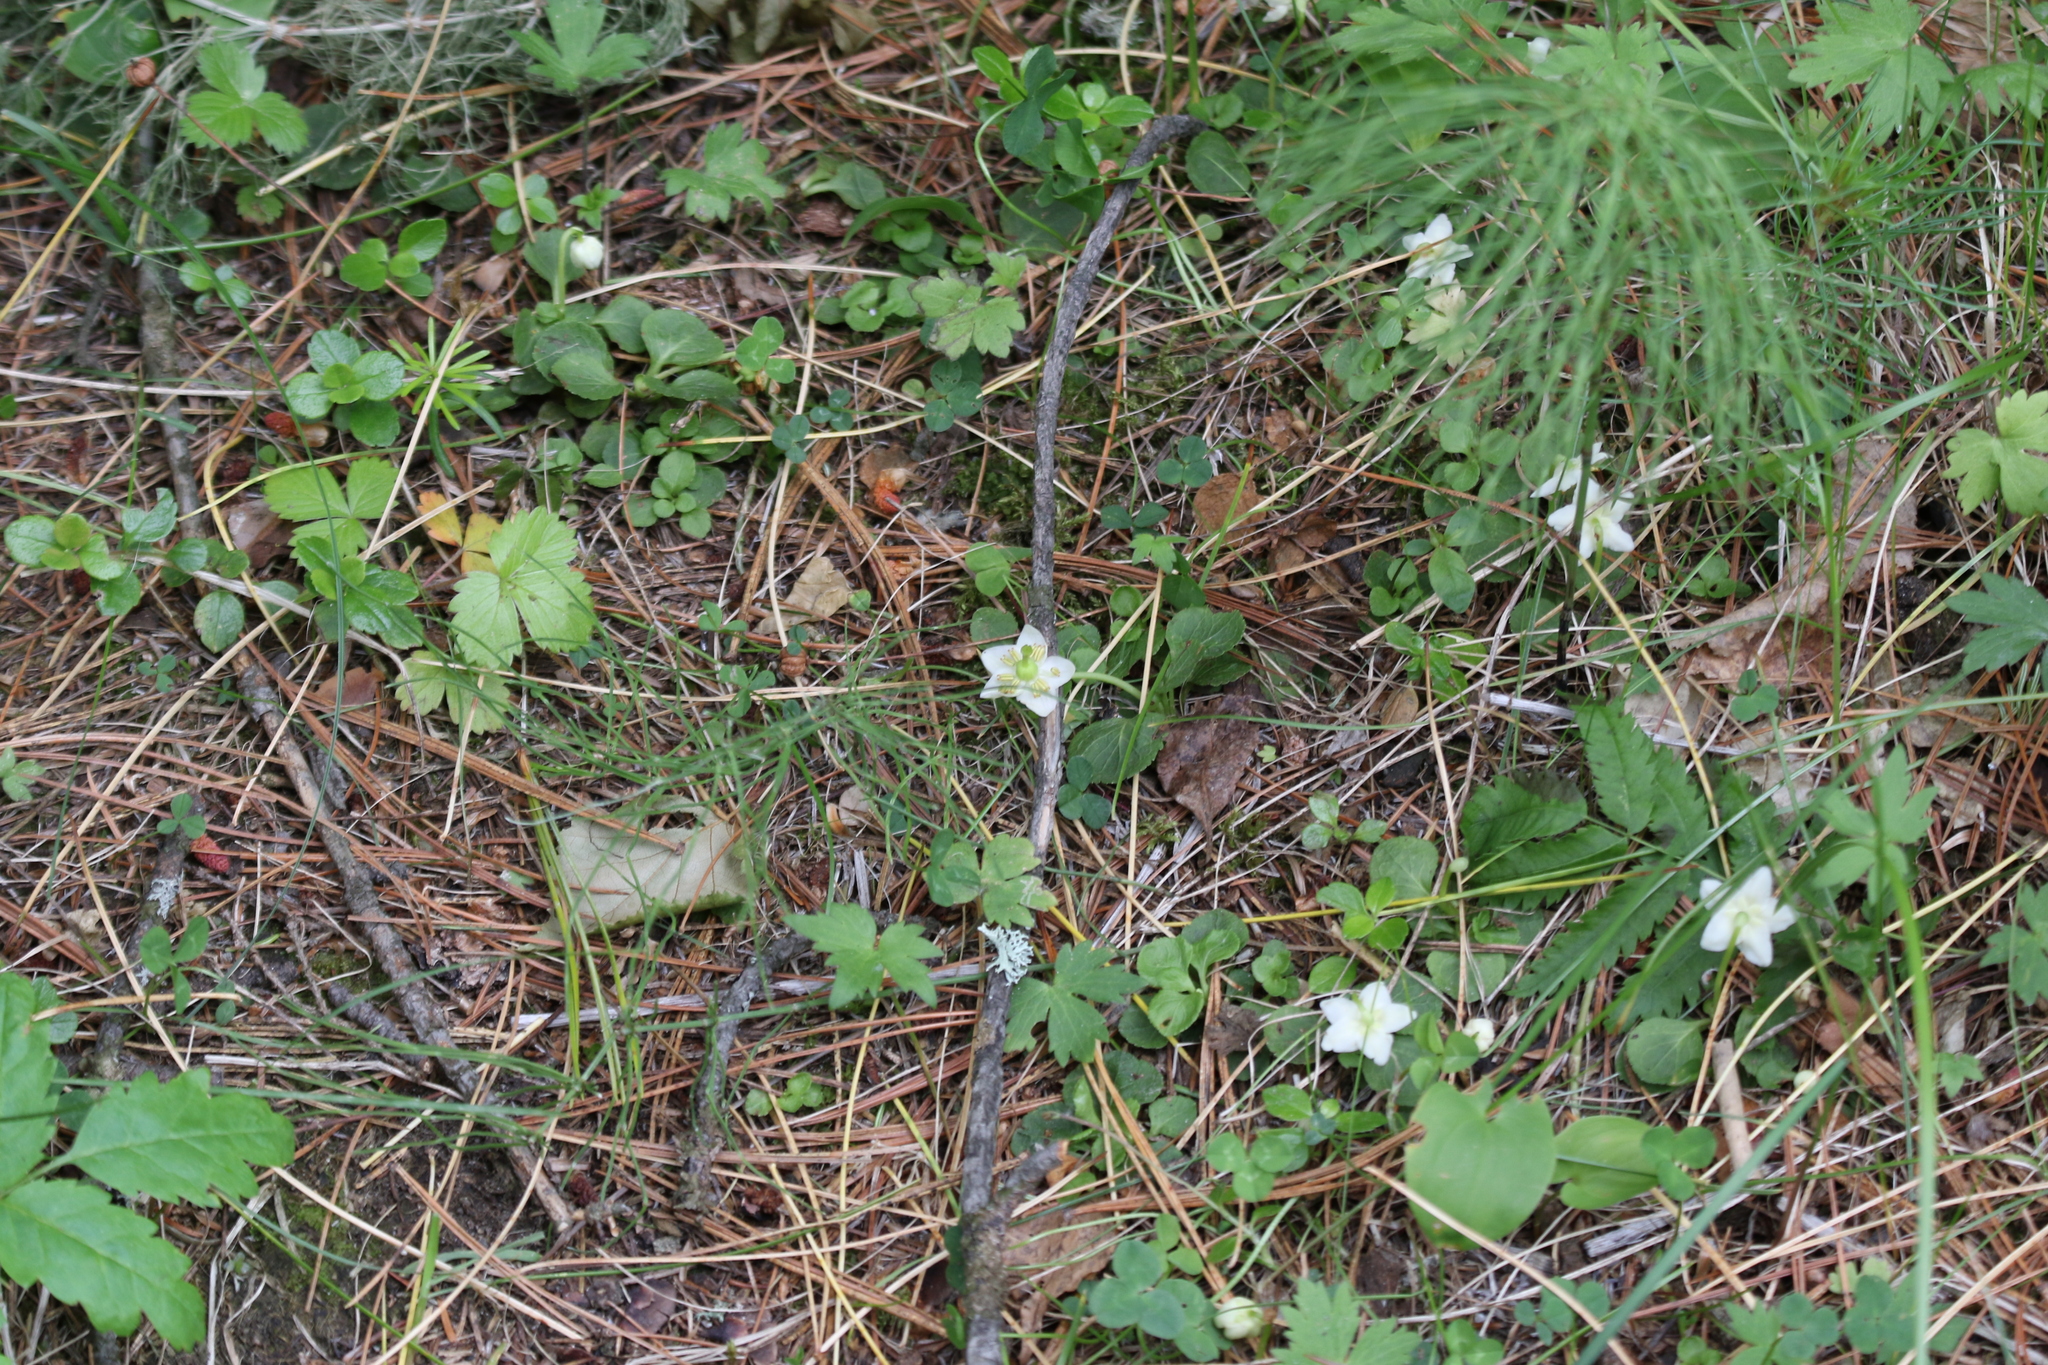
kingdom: Plantae
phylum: Tracheophyta
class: Magnoliopsida
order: Ericales
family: Ericaceae
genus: Moneses
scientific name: Moneses uniflora
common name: One-flowered wintergreen
